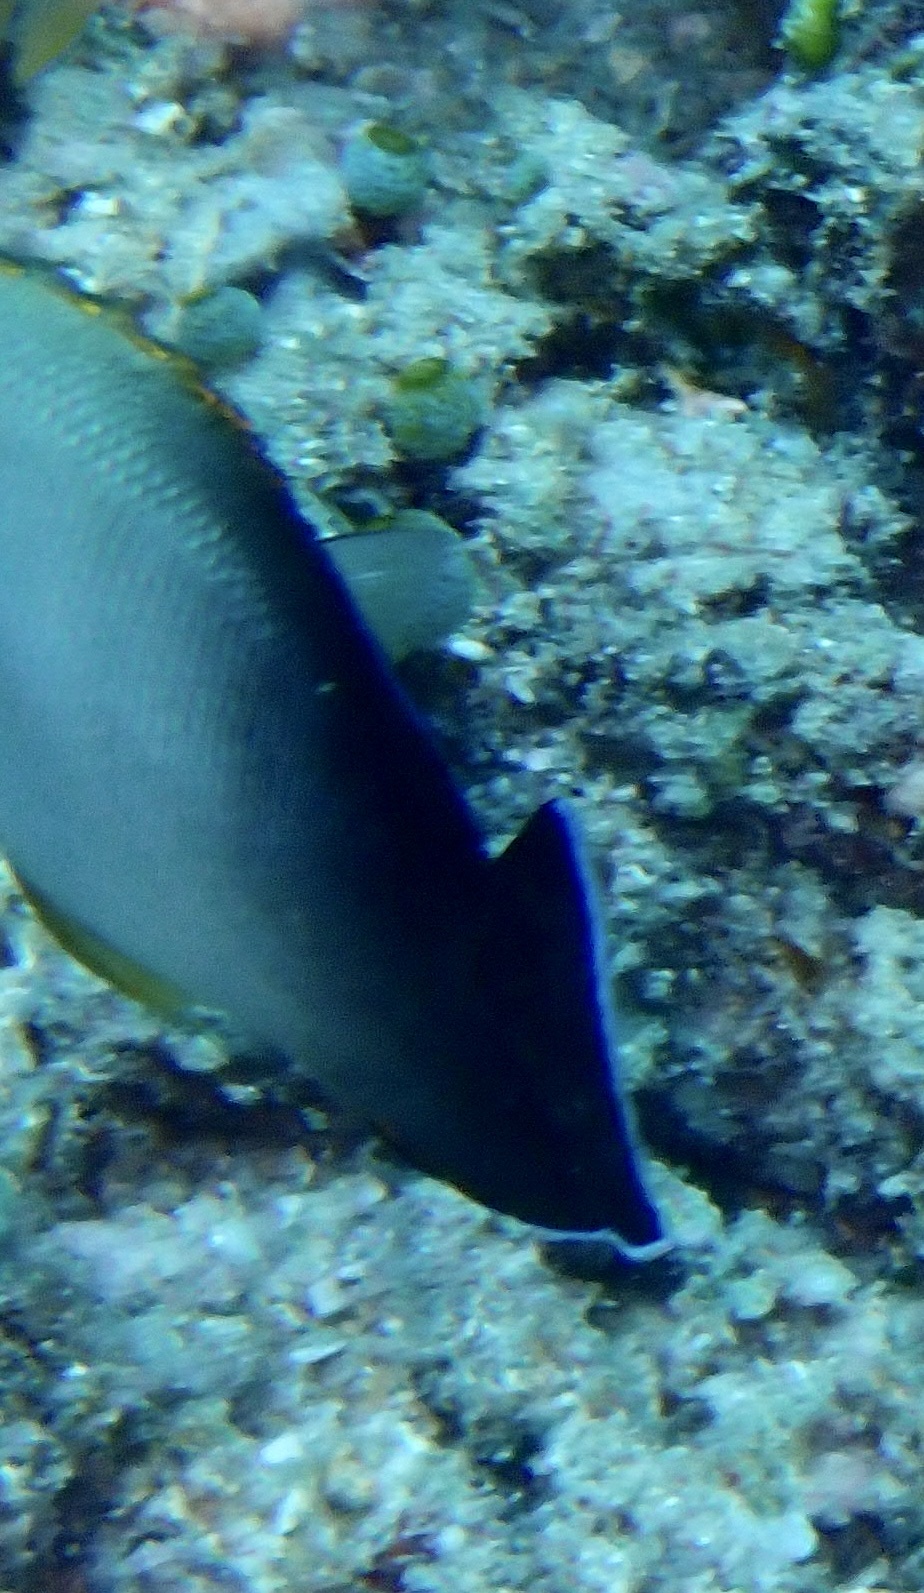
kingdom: Animalia
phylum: Chordata
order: Perciformes
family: Pomacanthidae
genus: Centropyge
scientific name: Centropyge vrolikii
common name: Pearlscale angelfish
